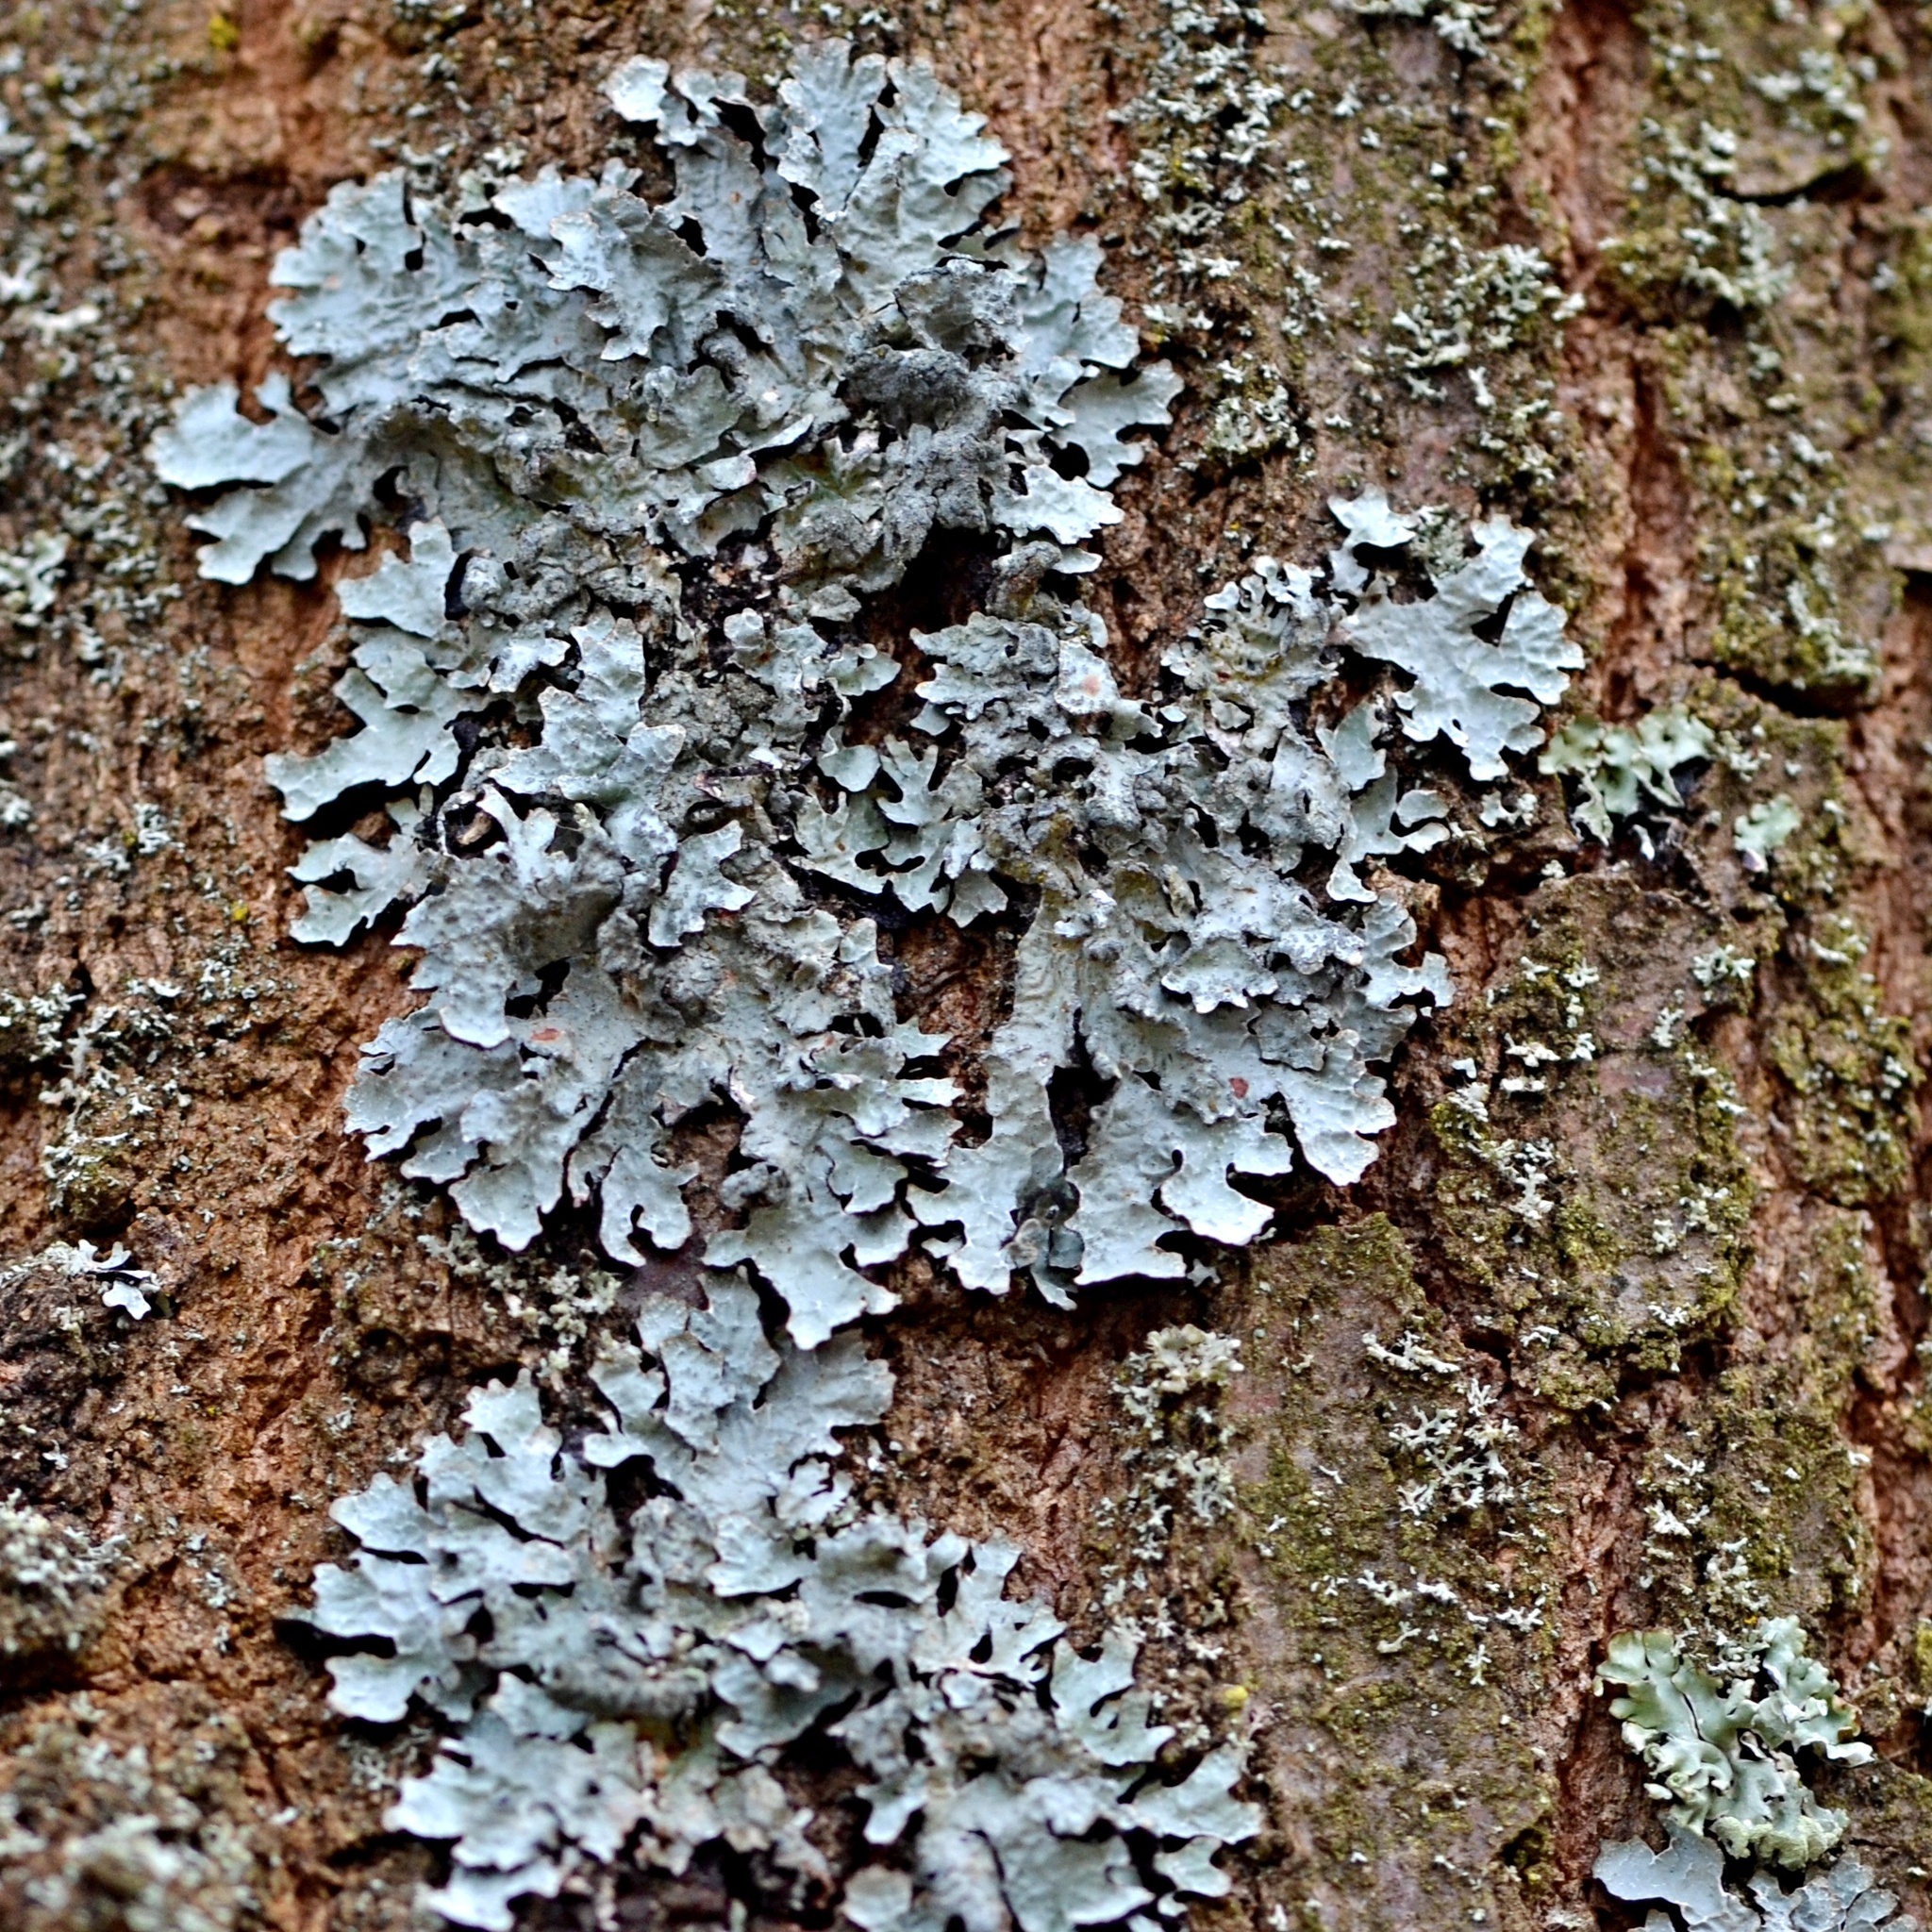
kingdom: Fungi
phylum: Ascomycota
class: Lecanoromycetes
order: Lecanorales
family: Parmeliaceae
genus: Parmelia
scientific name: Parmelia sulcata
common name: Netted shield lichen
